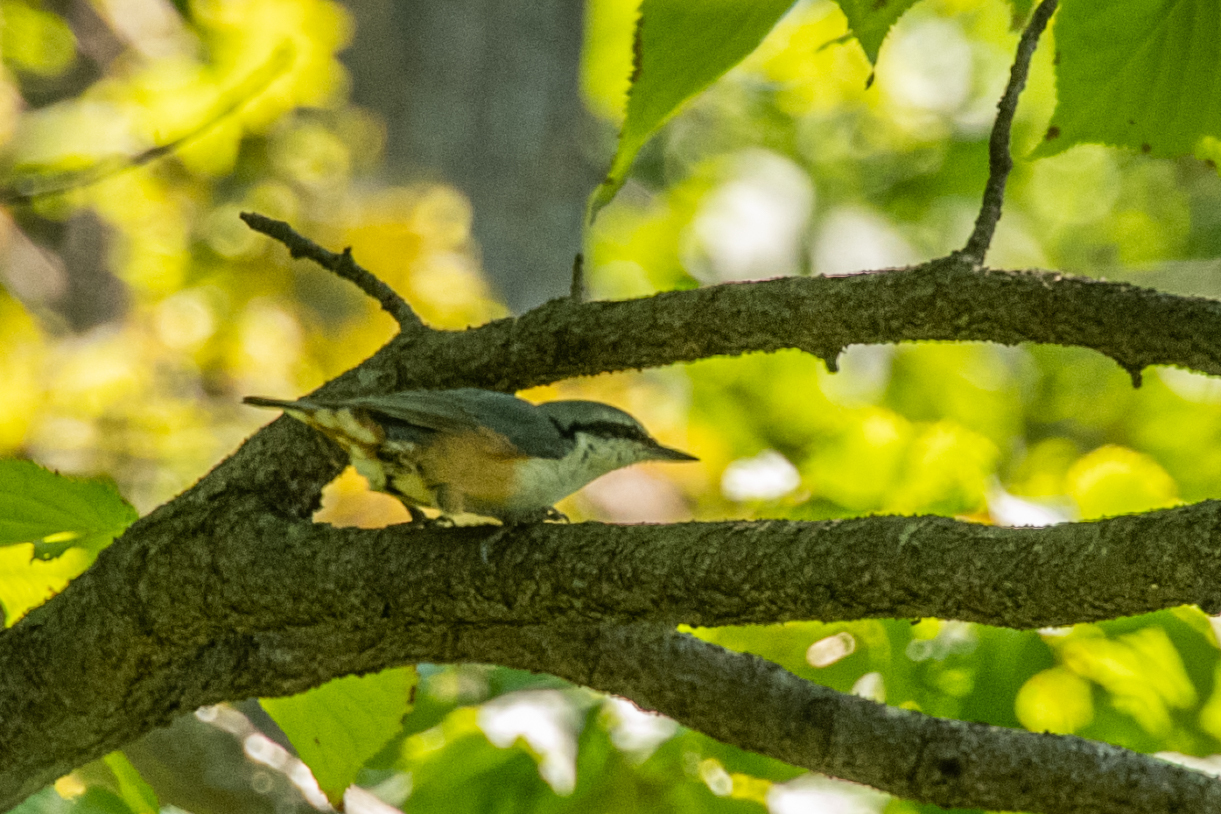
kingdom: Animalia
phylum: Chordata
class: Aves
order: Passeriformes
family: Sittidae
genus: Sitta
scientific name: Sitta europaea
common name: Eurasian nuthatch
